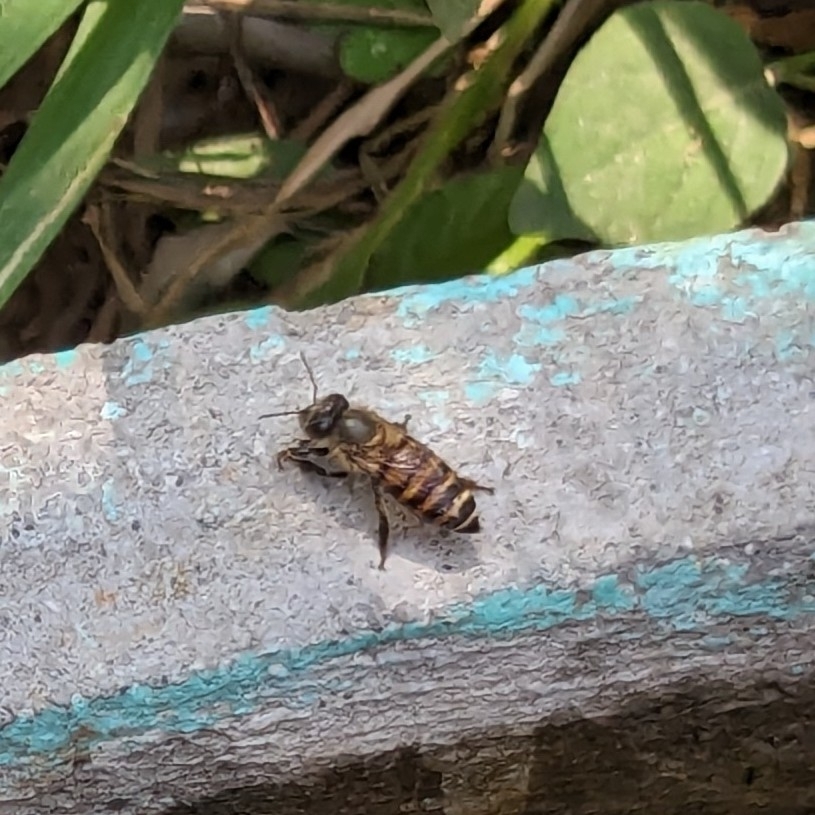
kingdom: Animalia
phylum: Arthropoda
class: Insecta
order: Hymenoptera
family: Apidae
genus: Apis
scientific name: Apis cerana
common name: Honey bee
